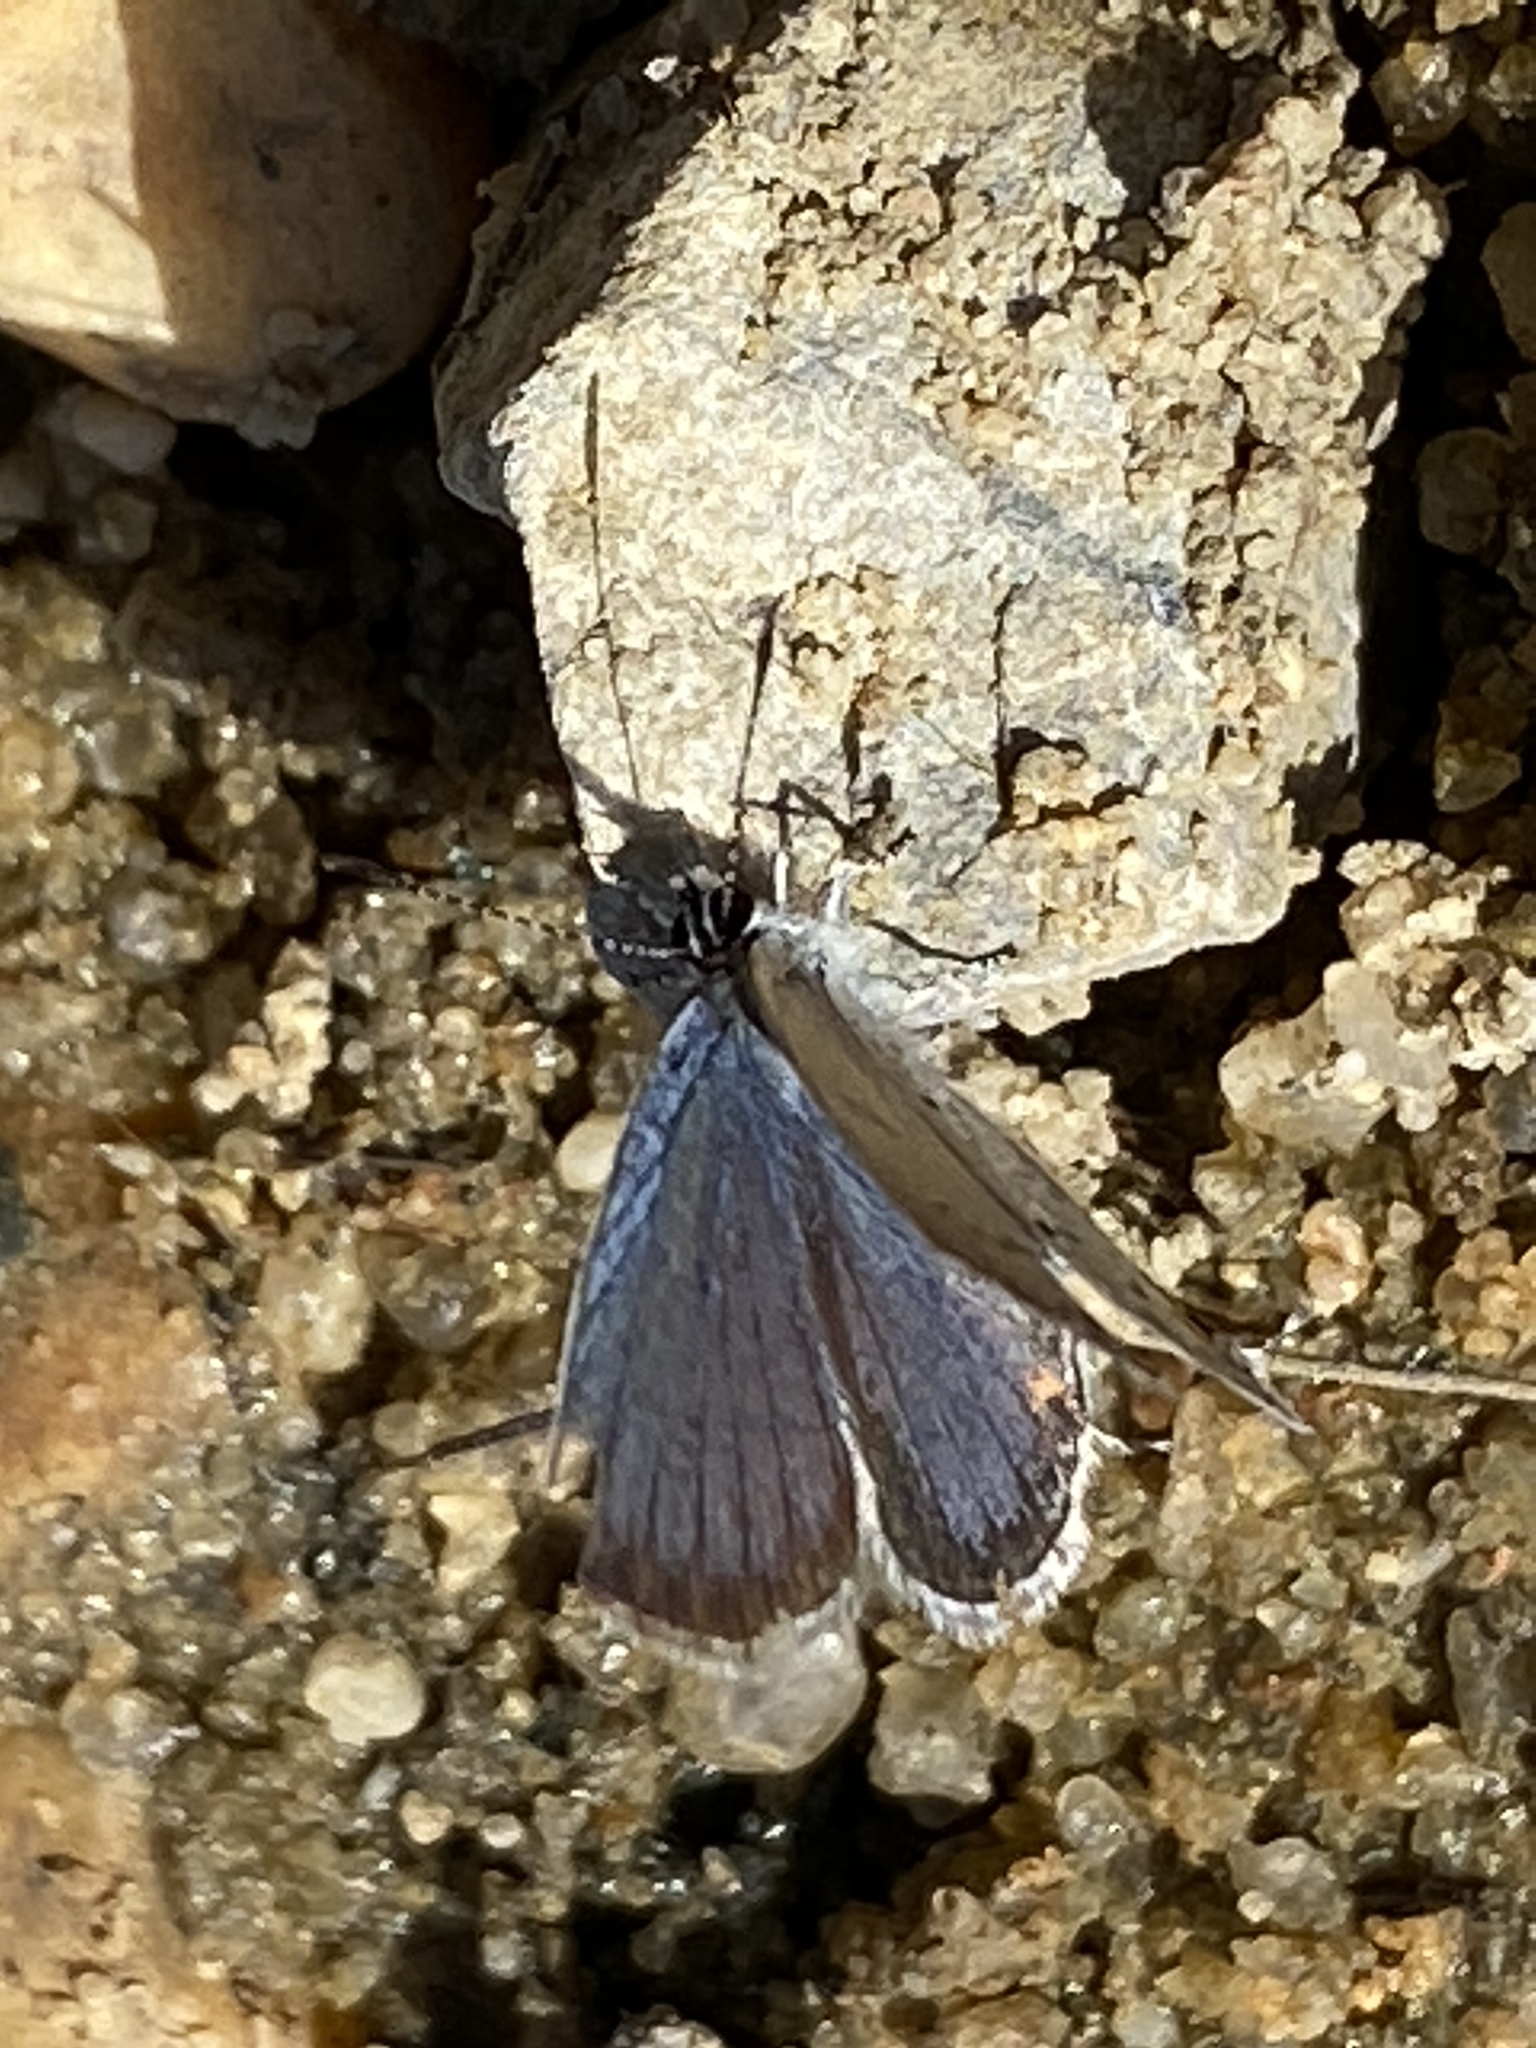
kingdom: Animalia
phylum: Arthropoda
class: Insecta
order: Lepidoptera
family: Lycaenidae
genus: Elkalyce
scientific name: Elkalyce comyntas
